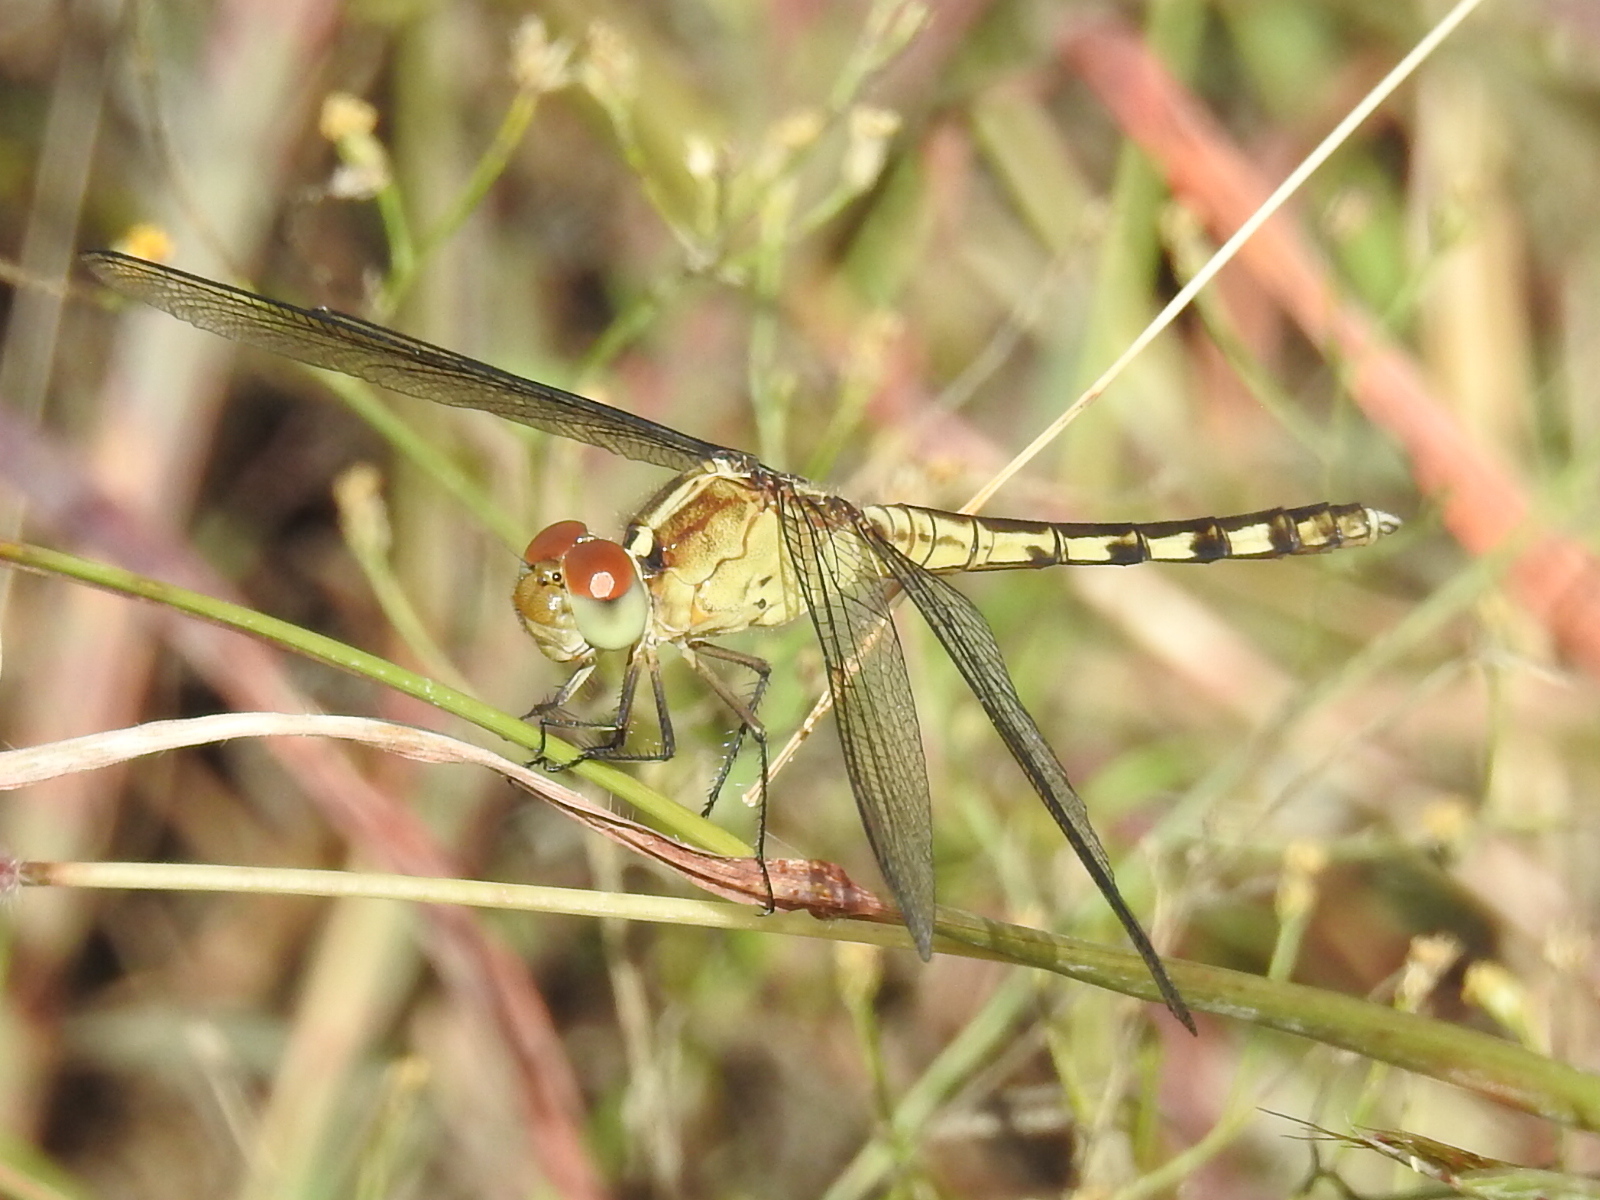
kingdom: Animalia
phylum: Arthropoda
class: Insecta
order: Odonata
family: Libellulidae
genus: Erythrodiplax
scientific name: Erythrodiplax umbrata
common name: Band-winged dragonlet
